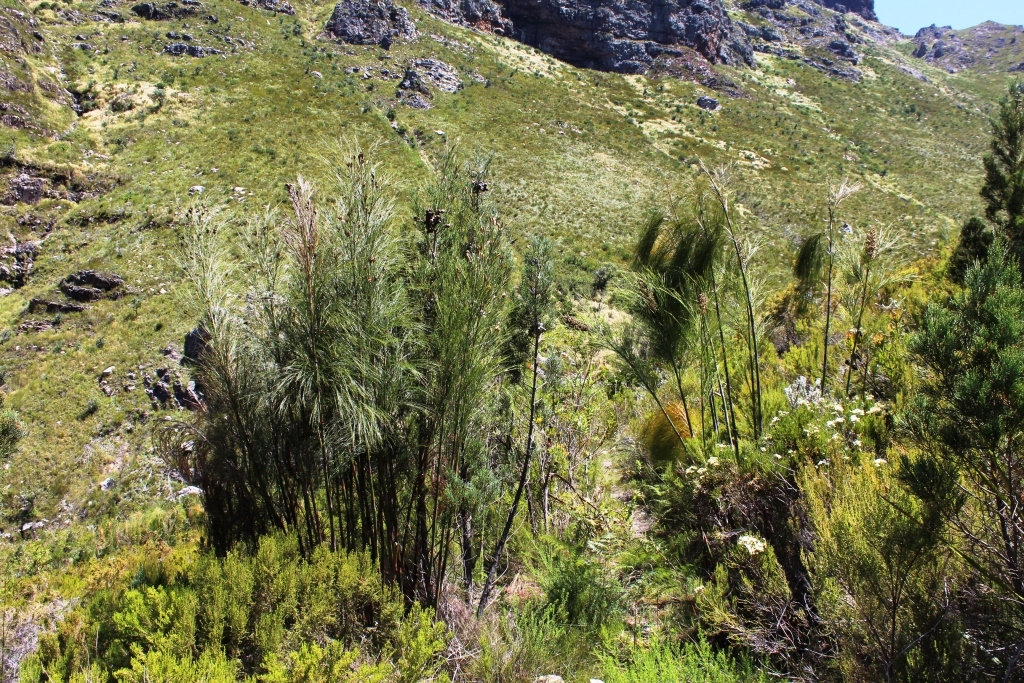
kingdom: Plantae
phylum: Tracheophyta
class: Liliopsida
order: Poales
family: Restionaceae
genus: Cannomois
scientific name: Cannomois grandis
